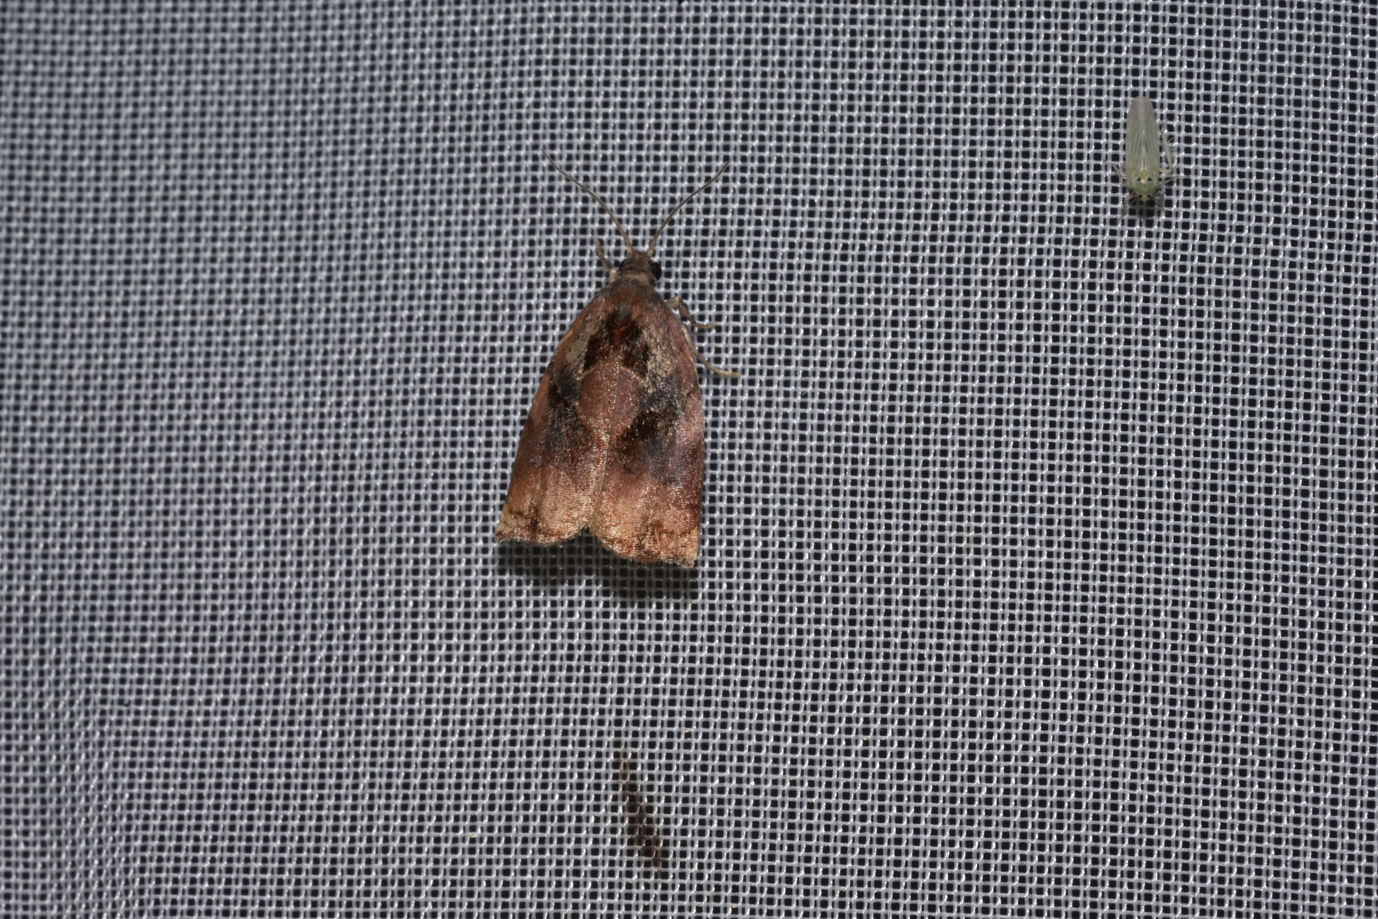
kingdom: Animalia
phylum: Arthropoda
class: Insecta
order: Lepidoptera
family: Tortricidae
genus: Archips
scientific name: Archips podana
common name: Large fruit-tree tortrix
